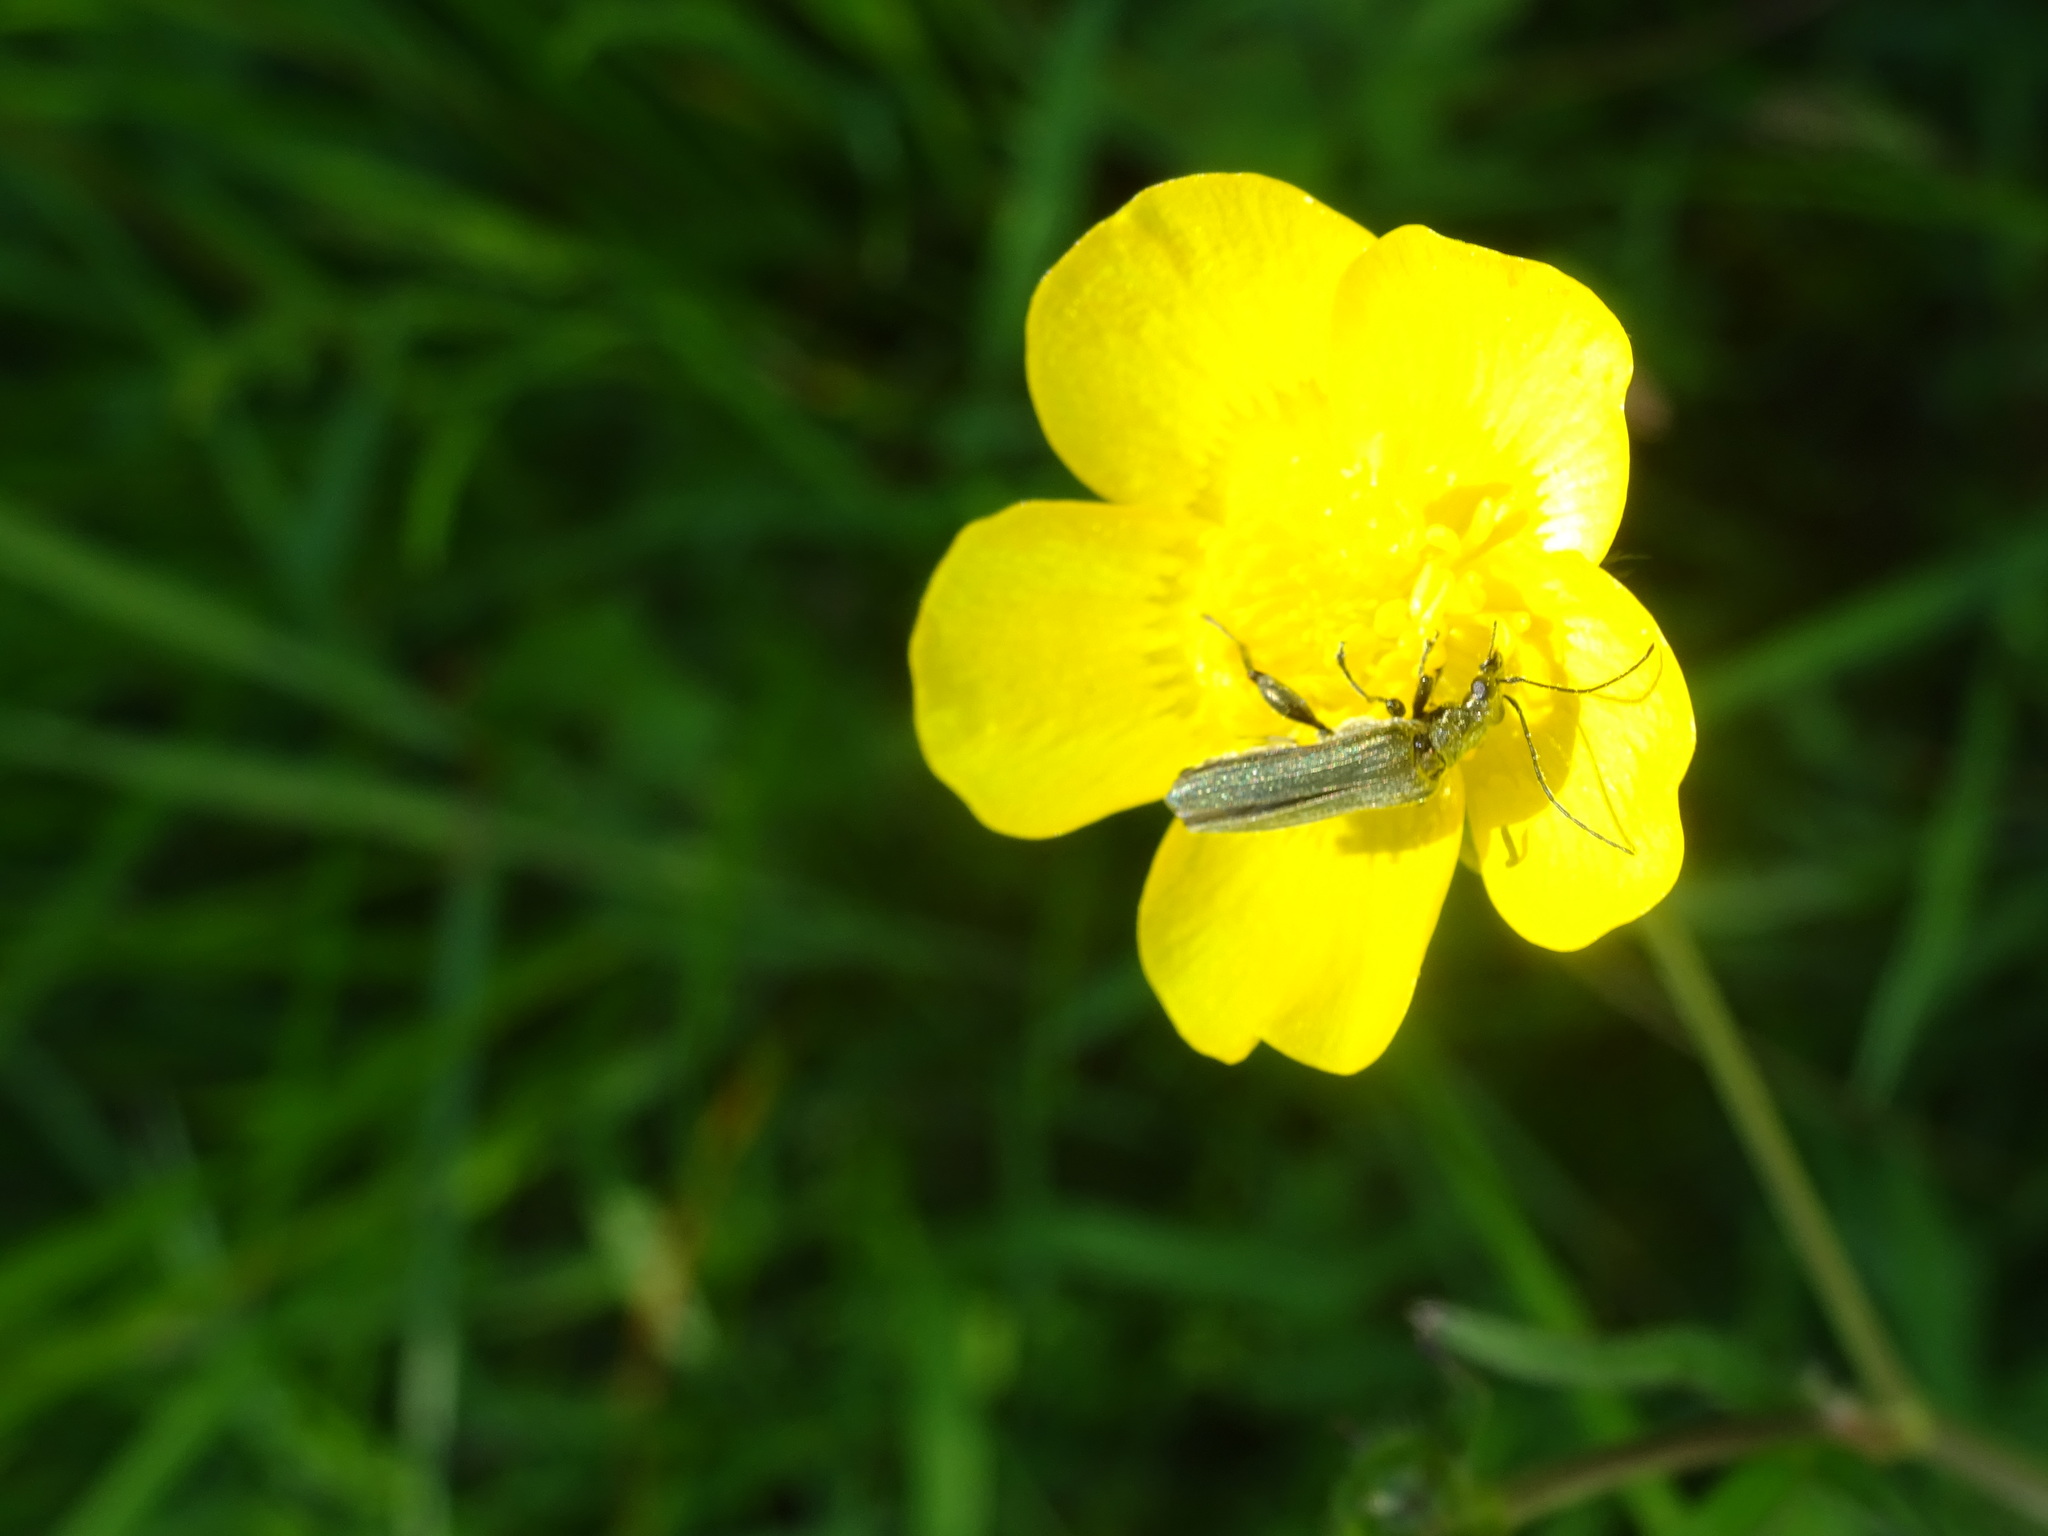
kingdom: Animalia
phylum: Arthropoda
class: Insecta
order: Coleoptera
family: Oedemeridae
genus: Oedemera
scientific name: Oedemera virescens
